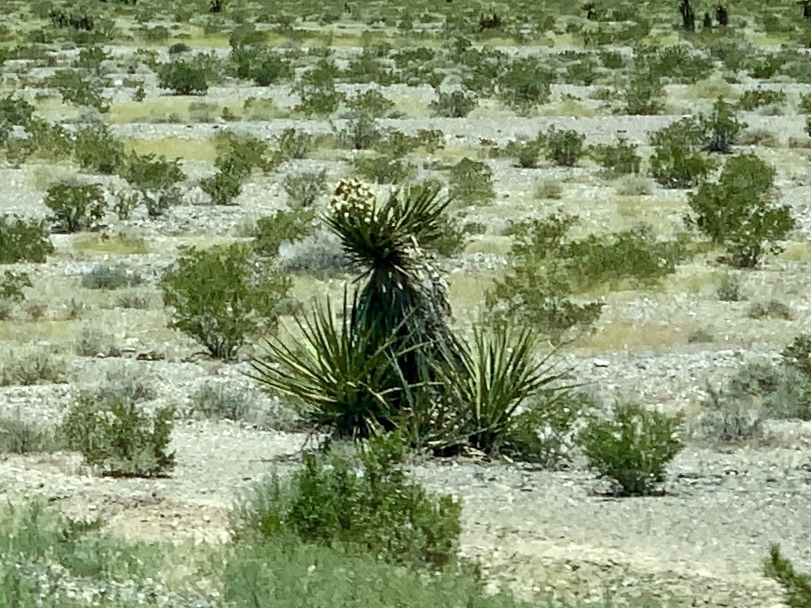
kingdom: Plantae
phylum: Tracheophyta
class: Liliopsida
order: Asparagales
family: Asparagaceae
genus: Yucca
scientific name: Yucca schidigera
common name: Mojave yucca
